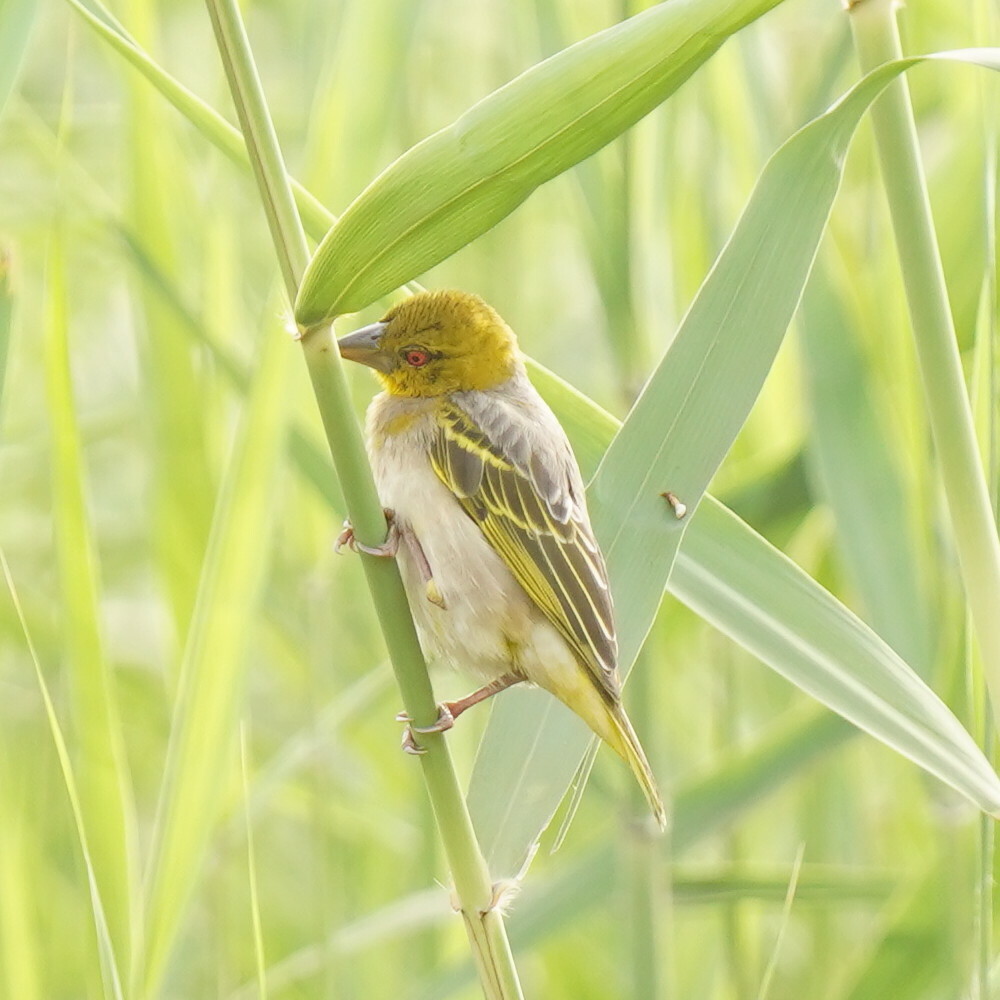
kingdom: Animalia
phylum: Chordata
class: Aves
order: Passeriformes
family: Ploceidae
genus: Ploceus
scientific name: Ploceus cucullatus
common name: Village weaver
